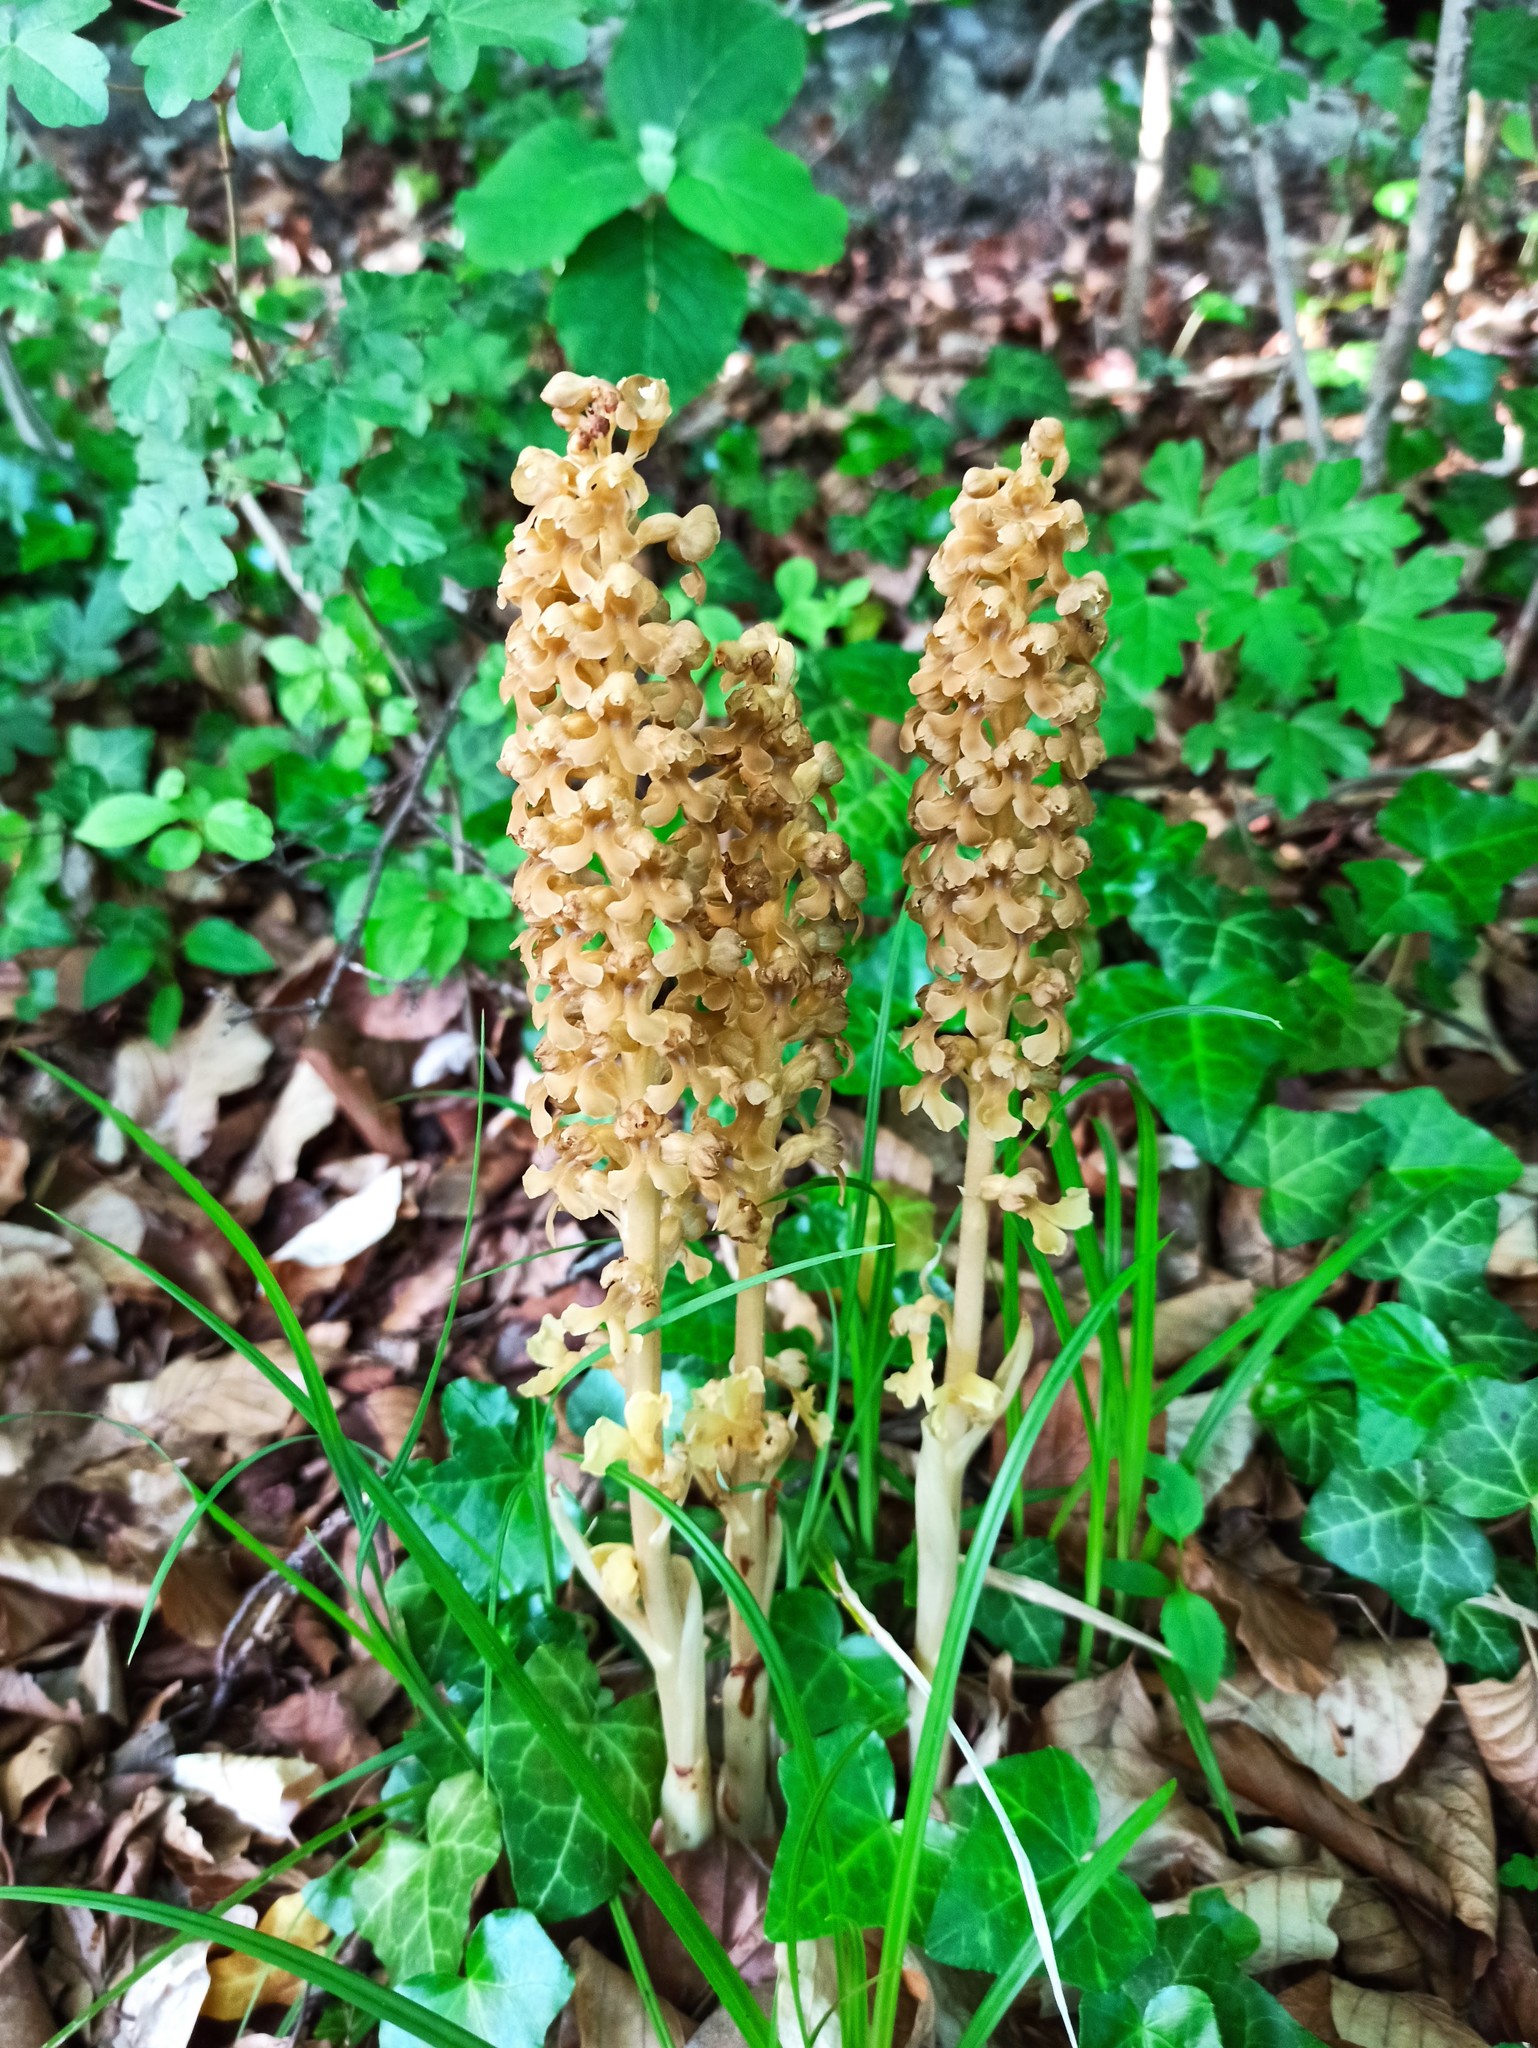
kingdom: Plantae
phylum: Tracheophyta
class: Liliopsida
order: Asparagales
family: Orchidaceae
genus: Neottia
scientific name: Neottia nidus-avis
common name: Bird's-nest orchid
